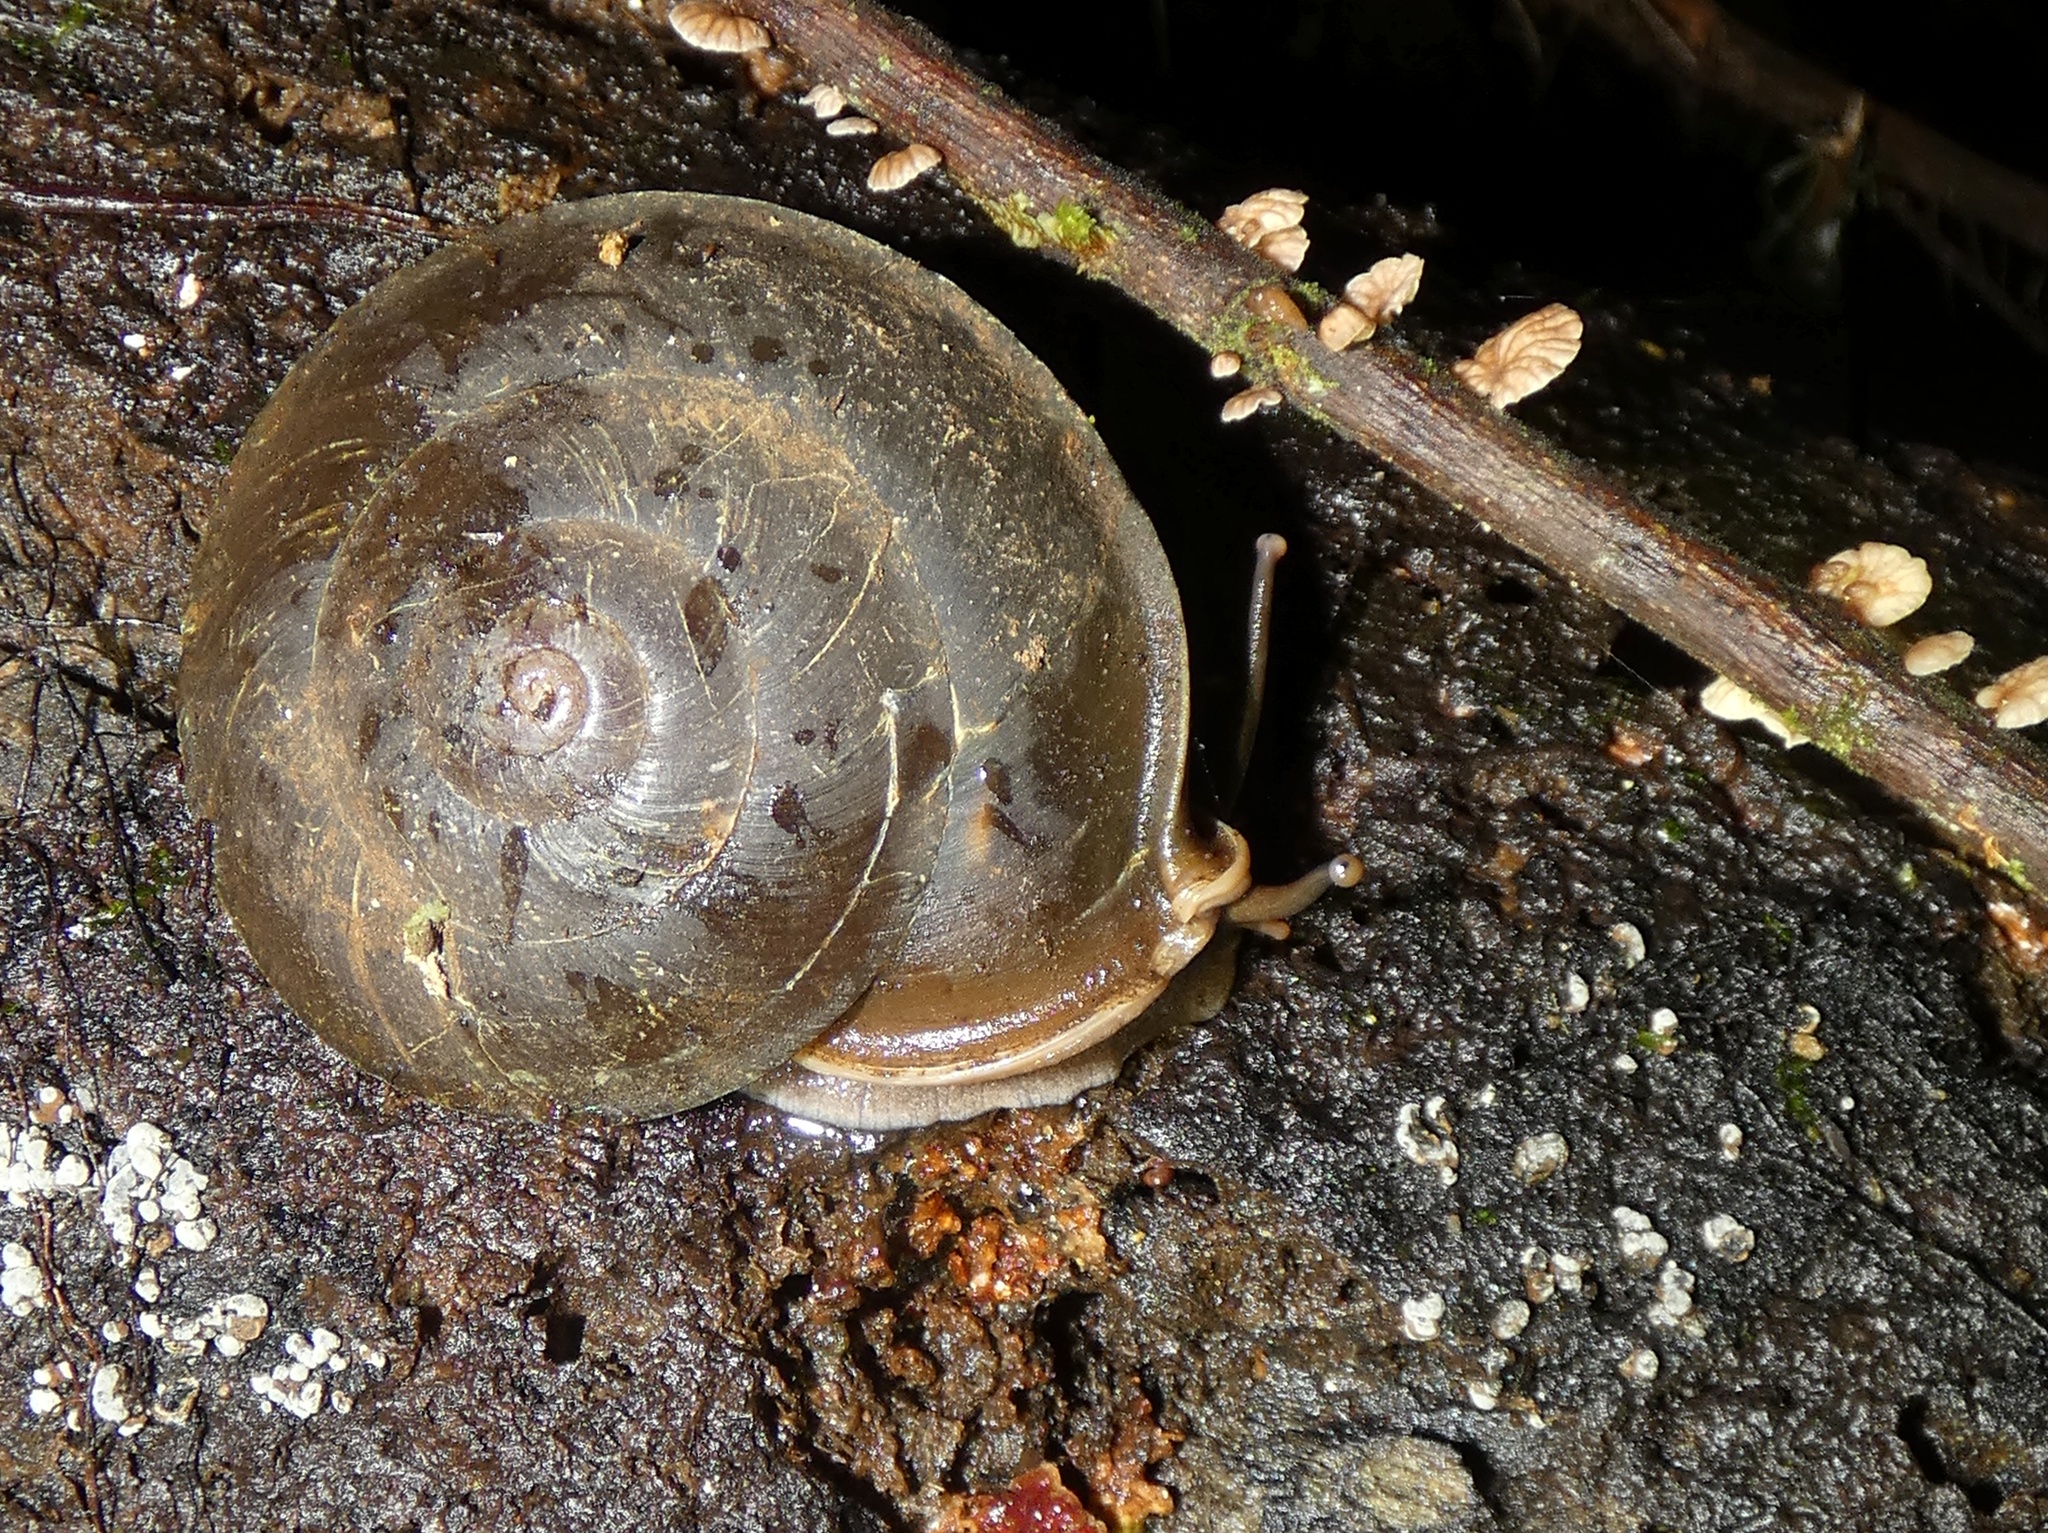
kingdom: Animalia
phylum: Mollusca
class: Gastropoda
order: Stylommatophora
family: Labyrinthidae
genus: Labyrinthus
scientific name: Labyrinthus otis
